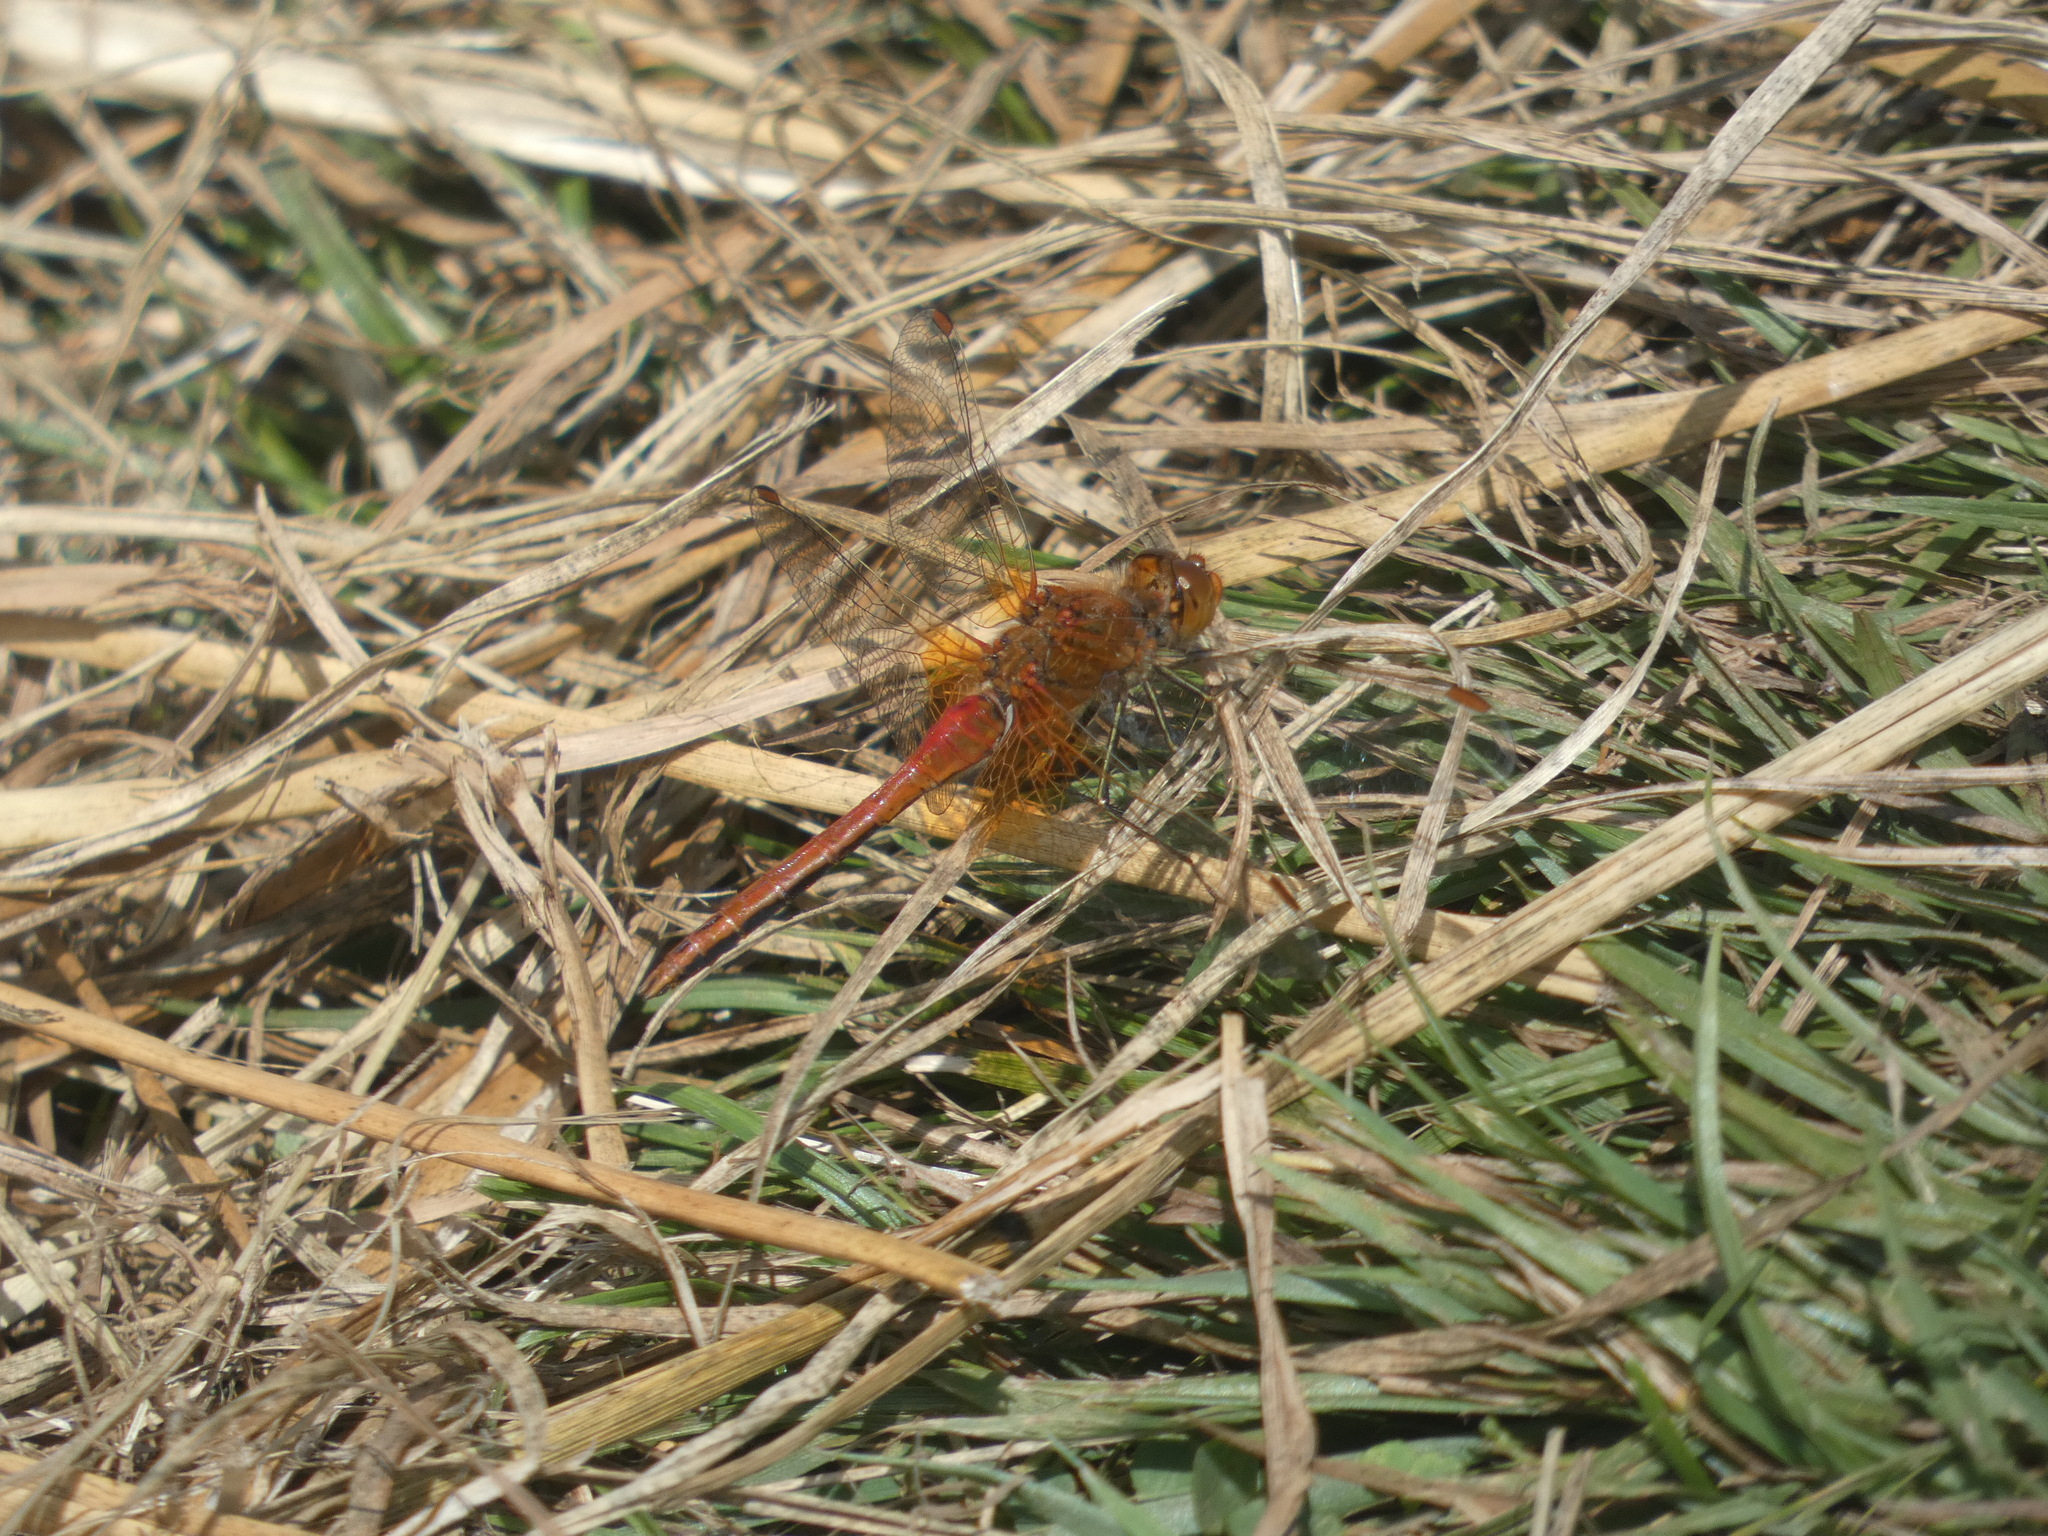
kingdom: Animalia
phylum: Arthropoda
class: Insecta
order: Odonata
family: Libellulidae
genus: Sympetrum
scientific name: Sympetrum flaveolum
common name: Yellow-winged darter
